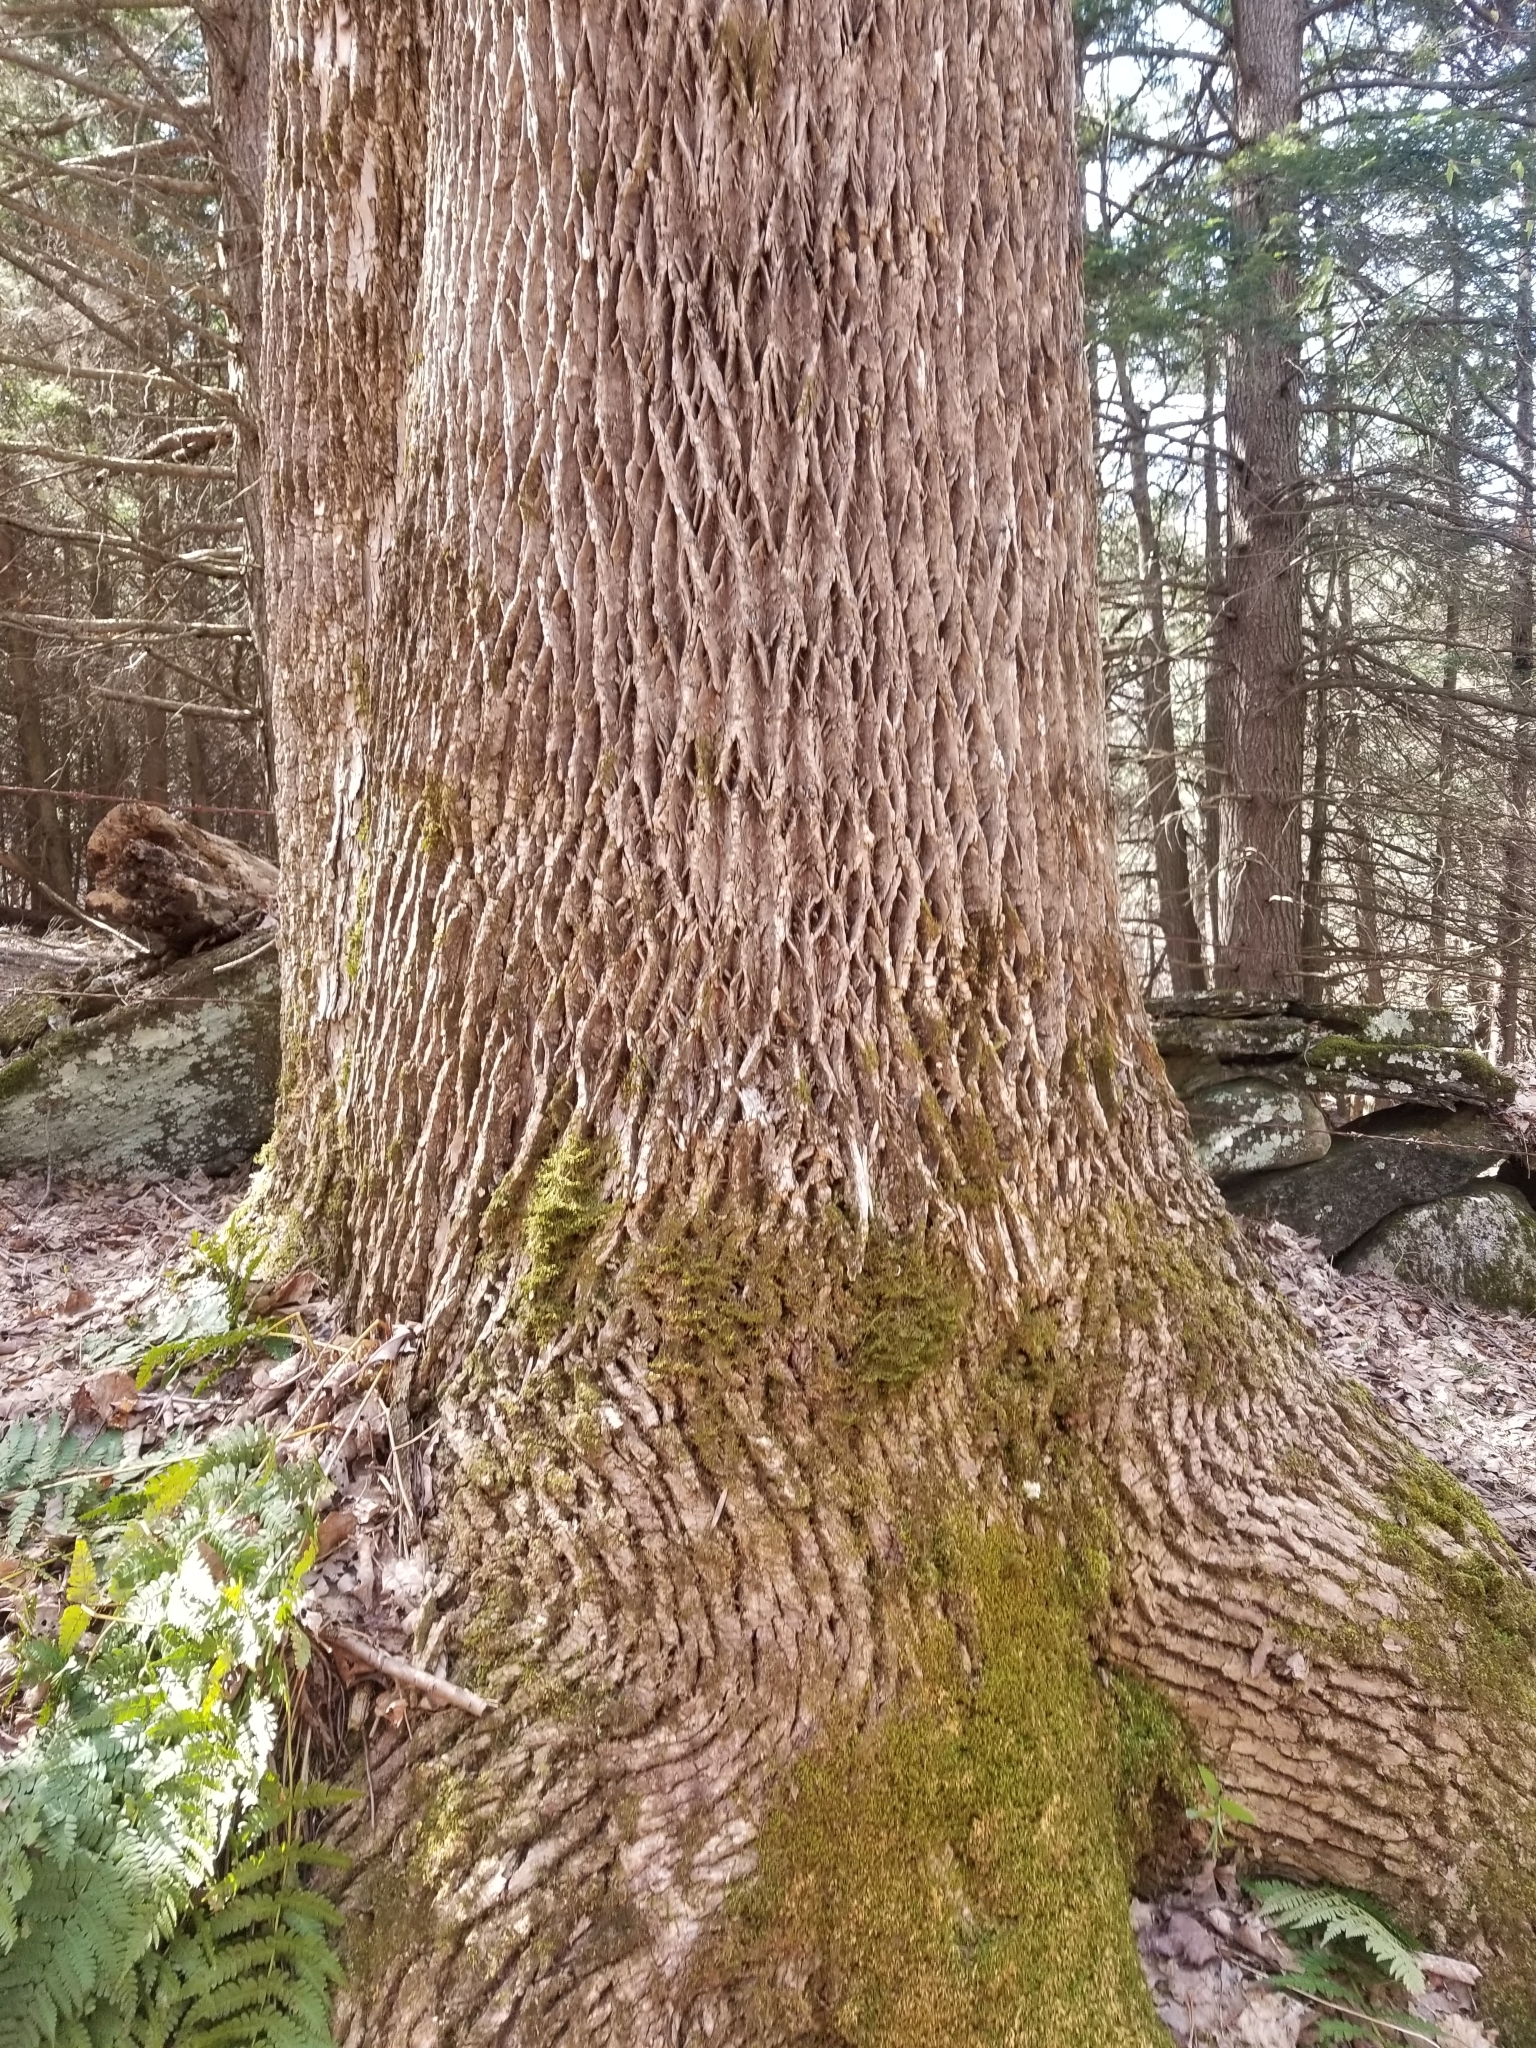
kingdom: Plantae
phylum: Tracheophyta
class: Magnoliopsida
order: Lamiales
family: Oleaceae
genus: Fraxinus
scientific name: Fraxinus americana
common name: White ash
